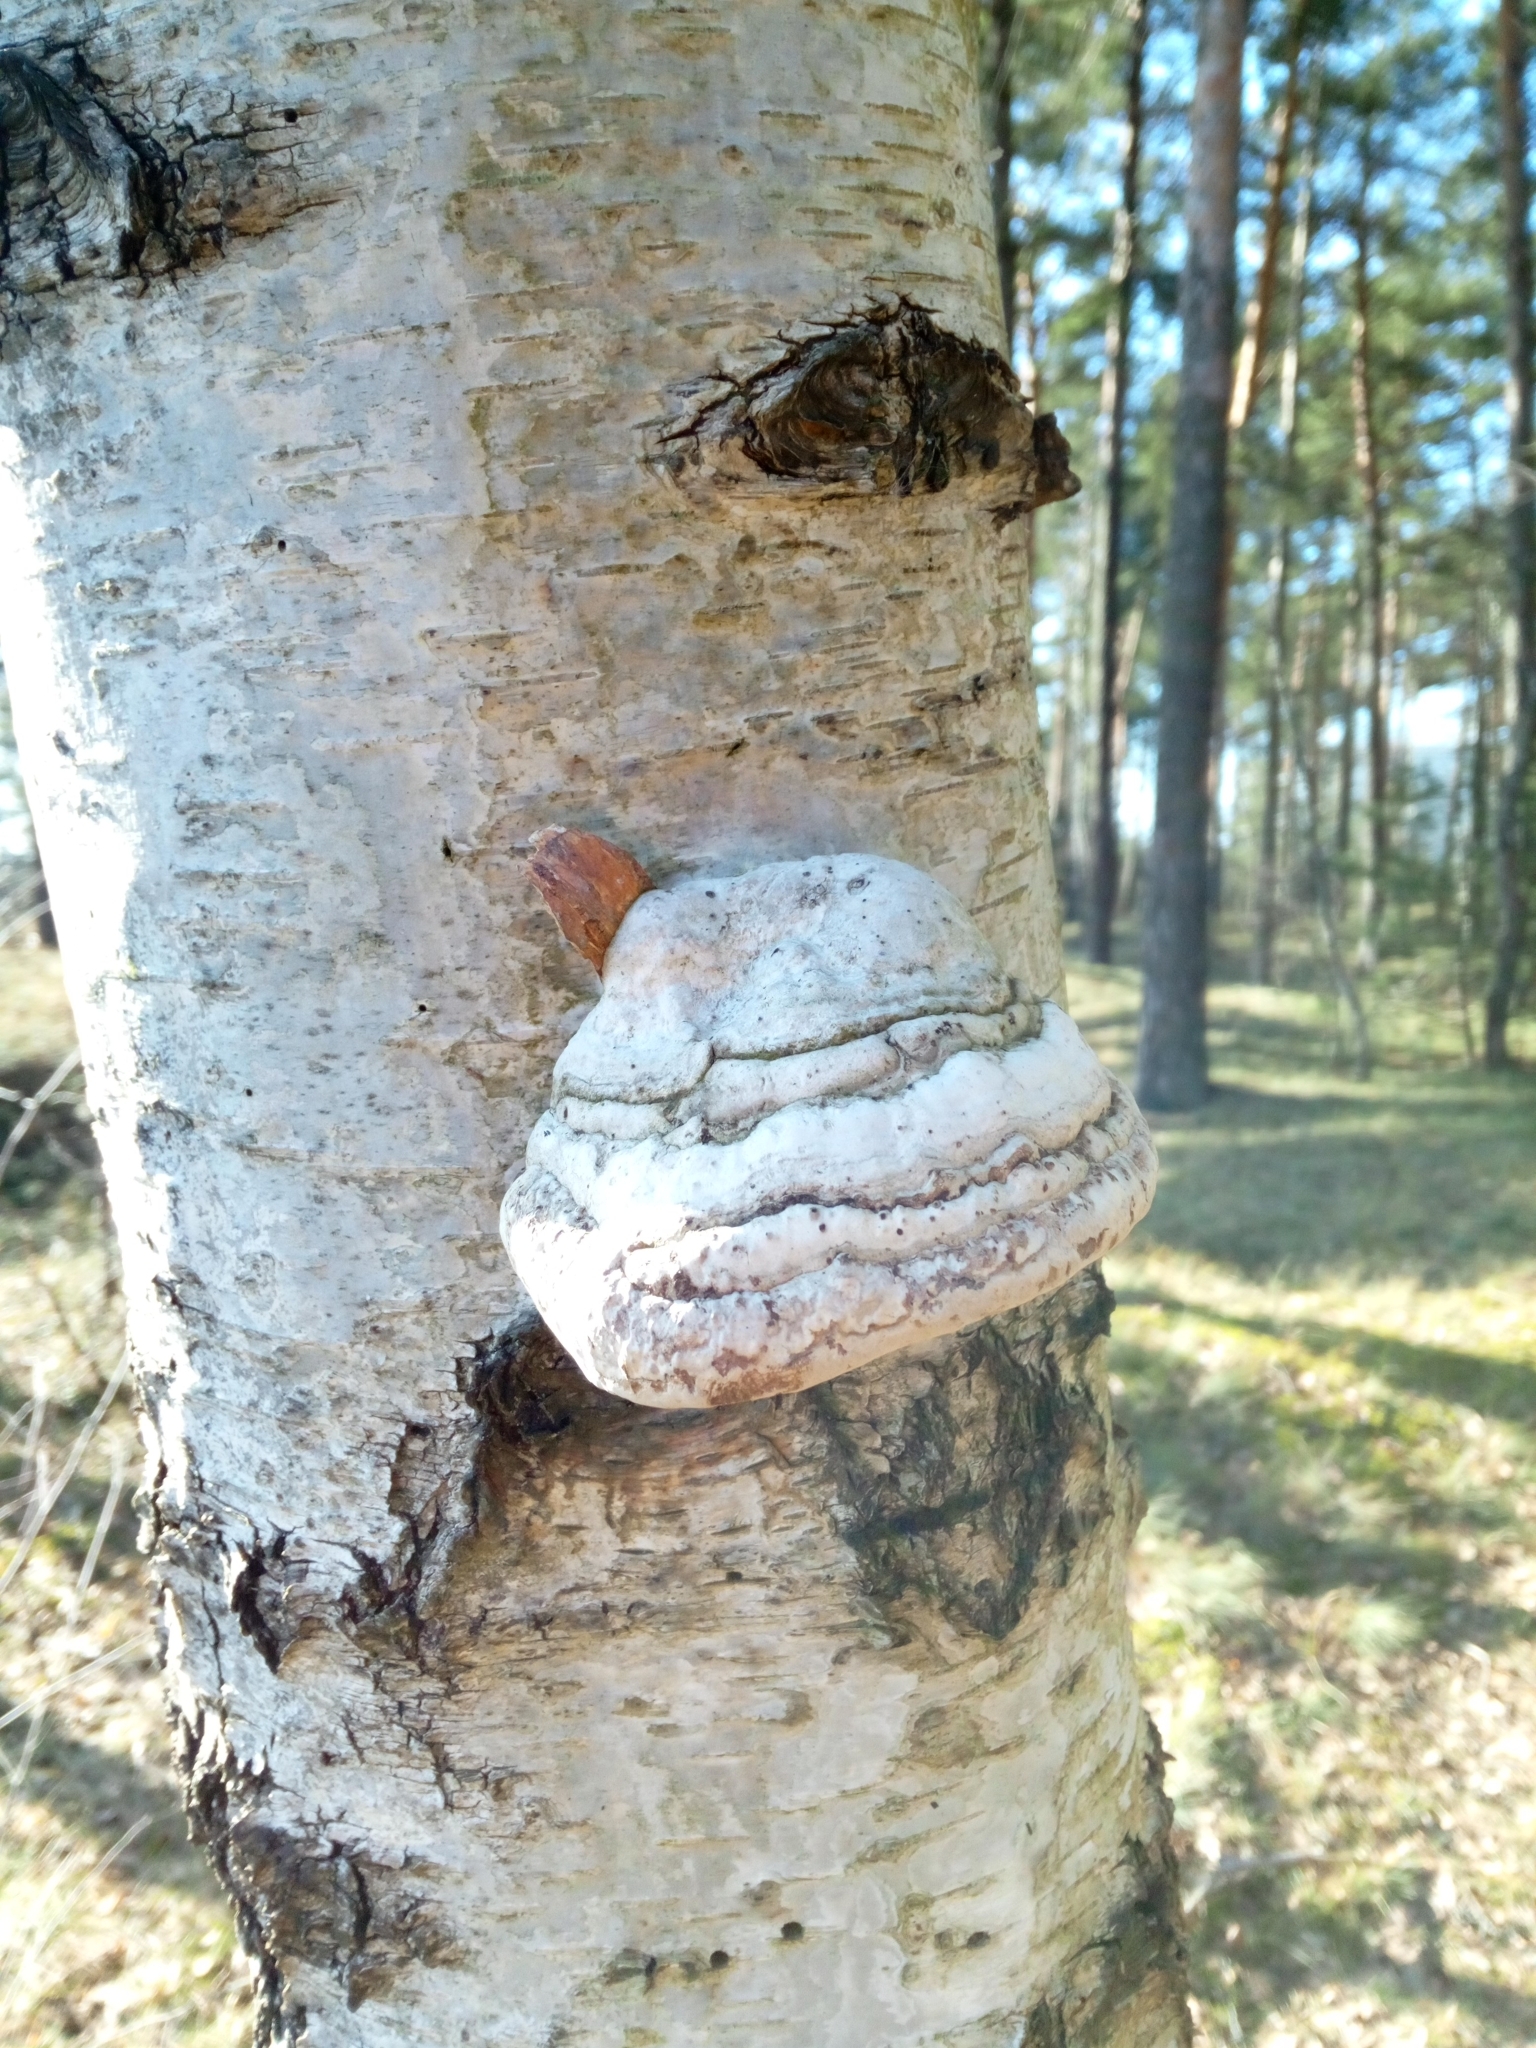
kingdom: Fungi
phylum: Basidiomycota
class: Agaricomycetes
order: Polyporales
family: Polyporaceae
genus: Fomes
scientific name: Fomes fomentarius
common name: Hoof fungus
